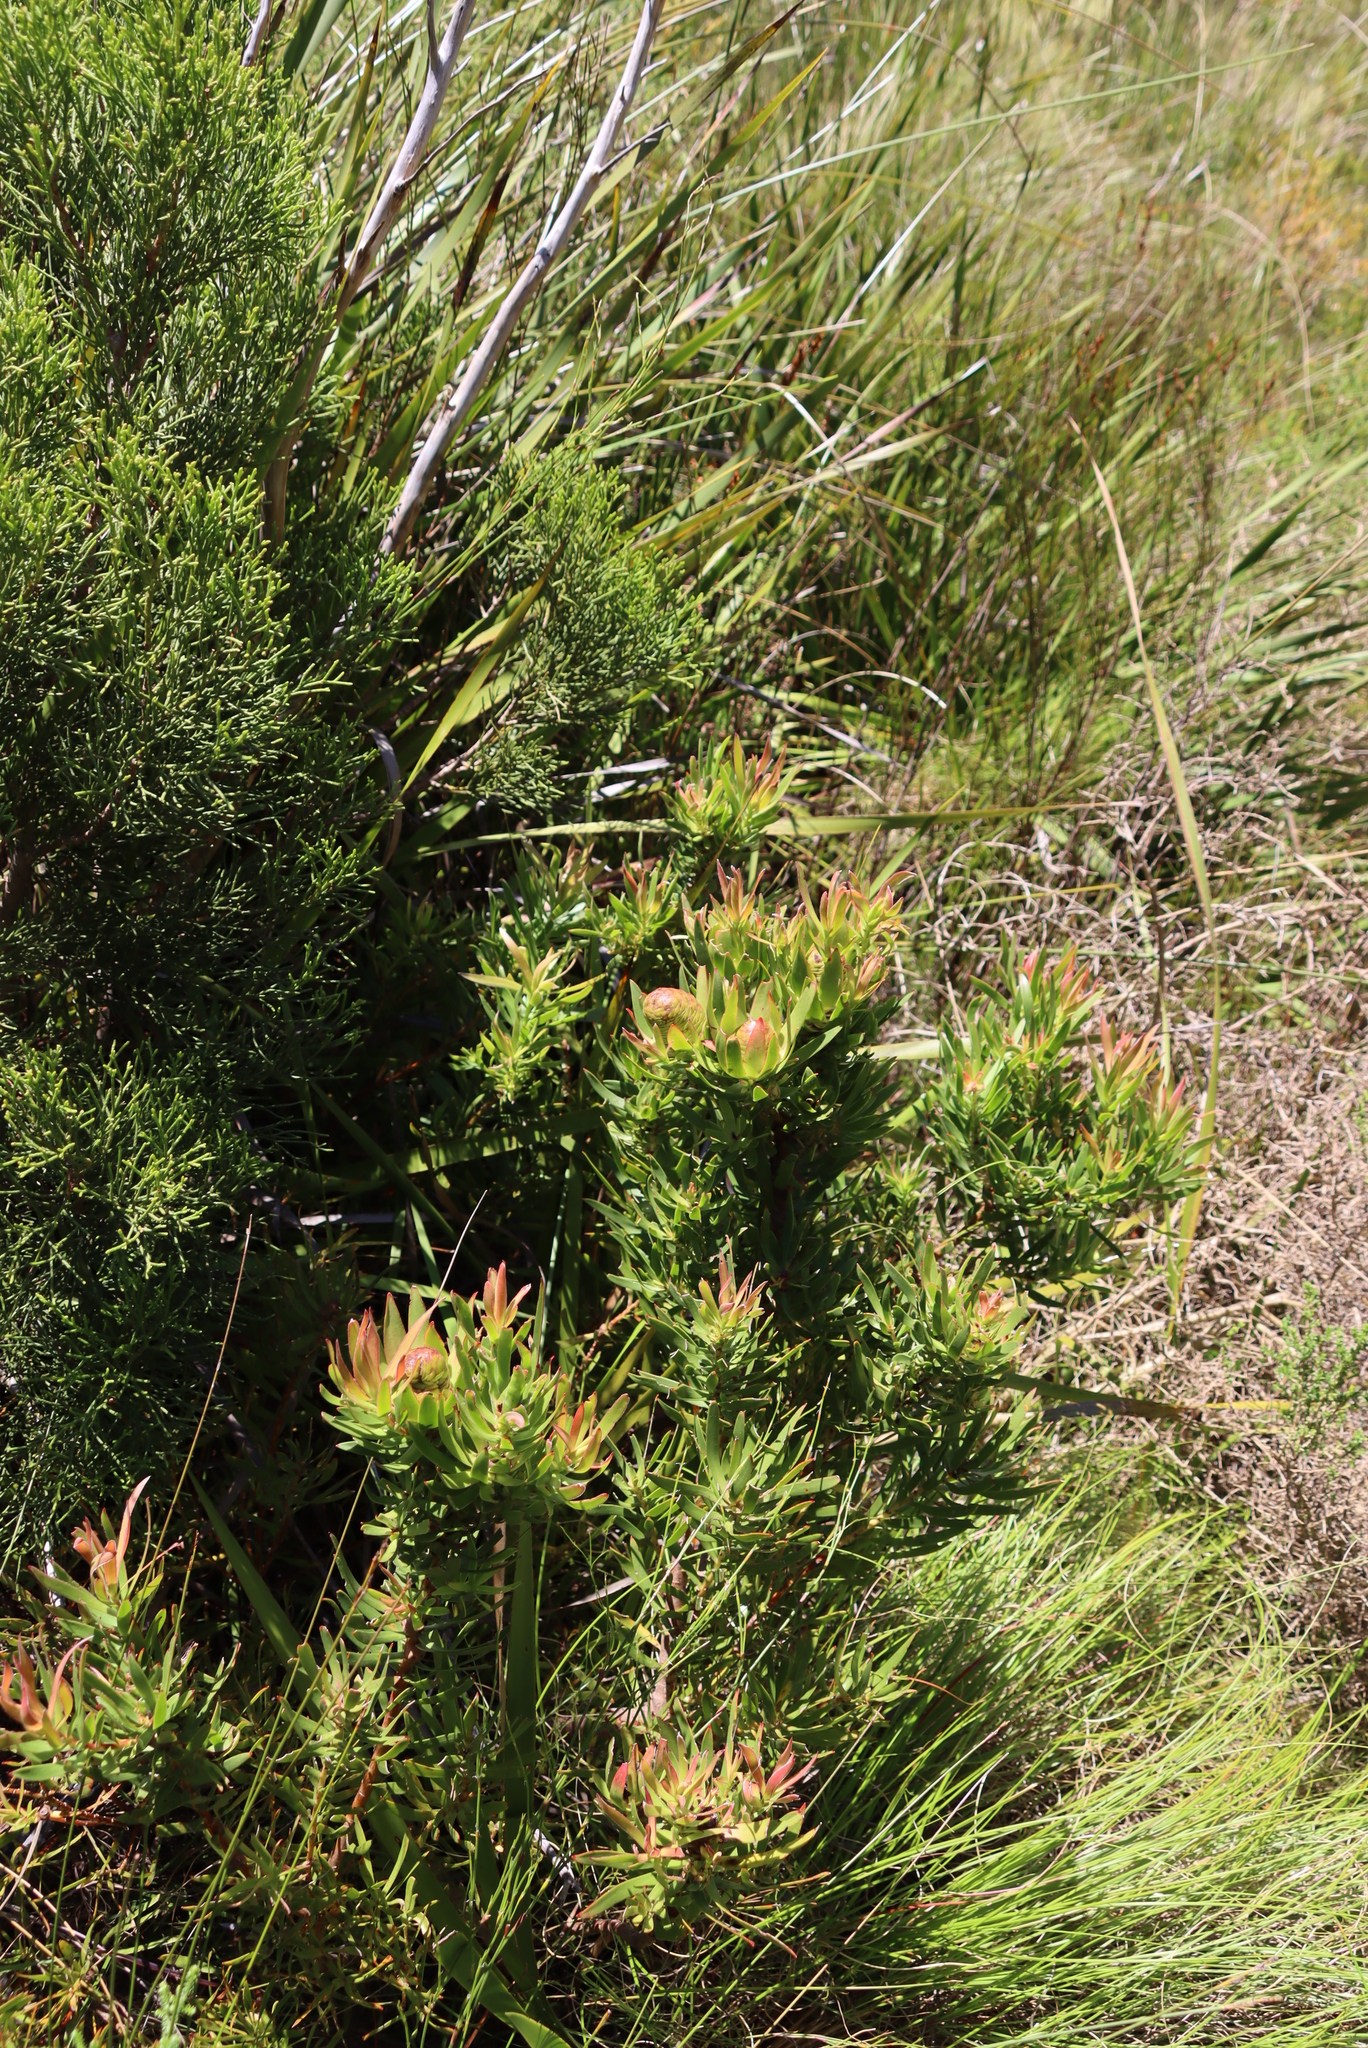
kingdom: Plantae
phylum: Tracheophyta
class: Magnoliopsida
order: Proteales
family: Proteaceae
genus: Leucadendron
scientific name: Leucadendron spissifolium
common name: Spear-leaf conebush
